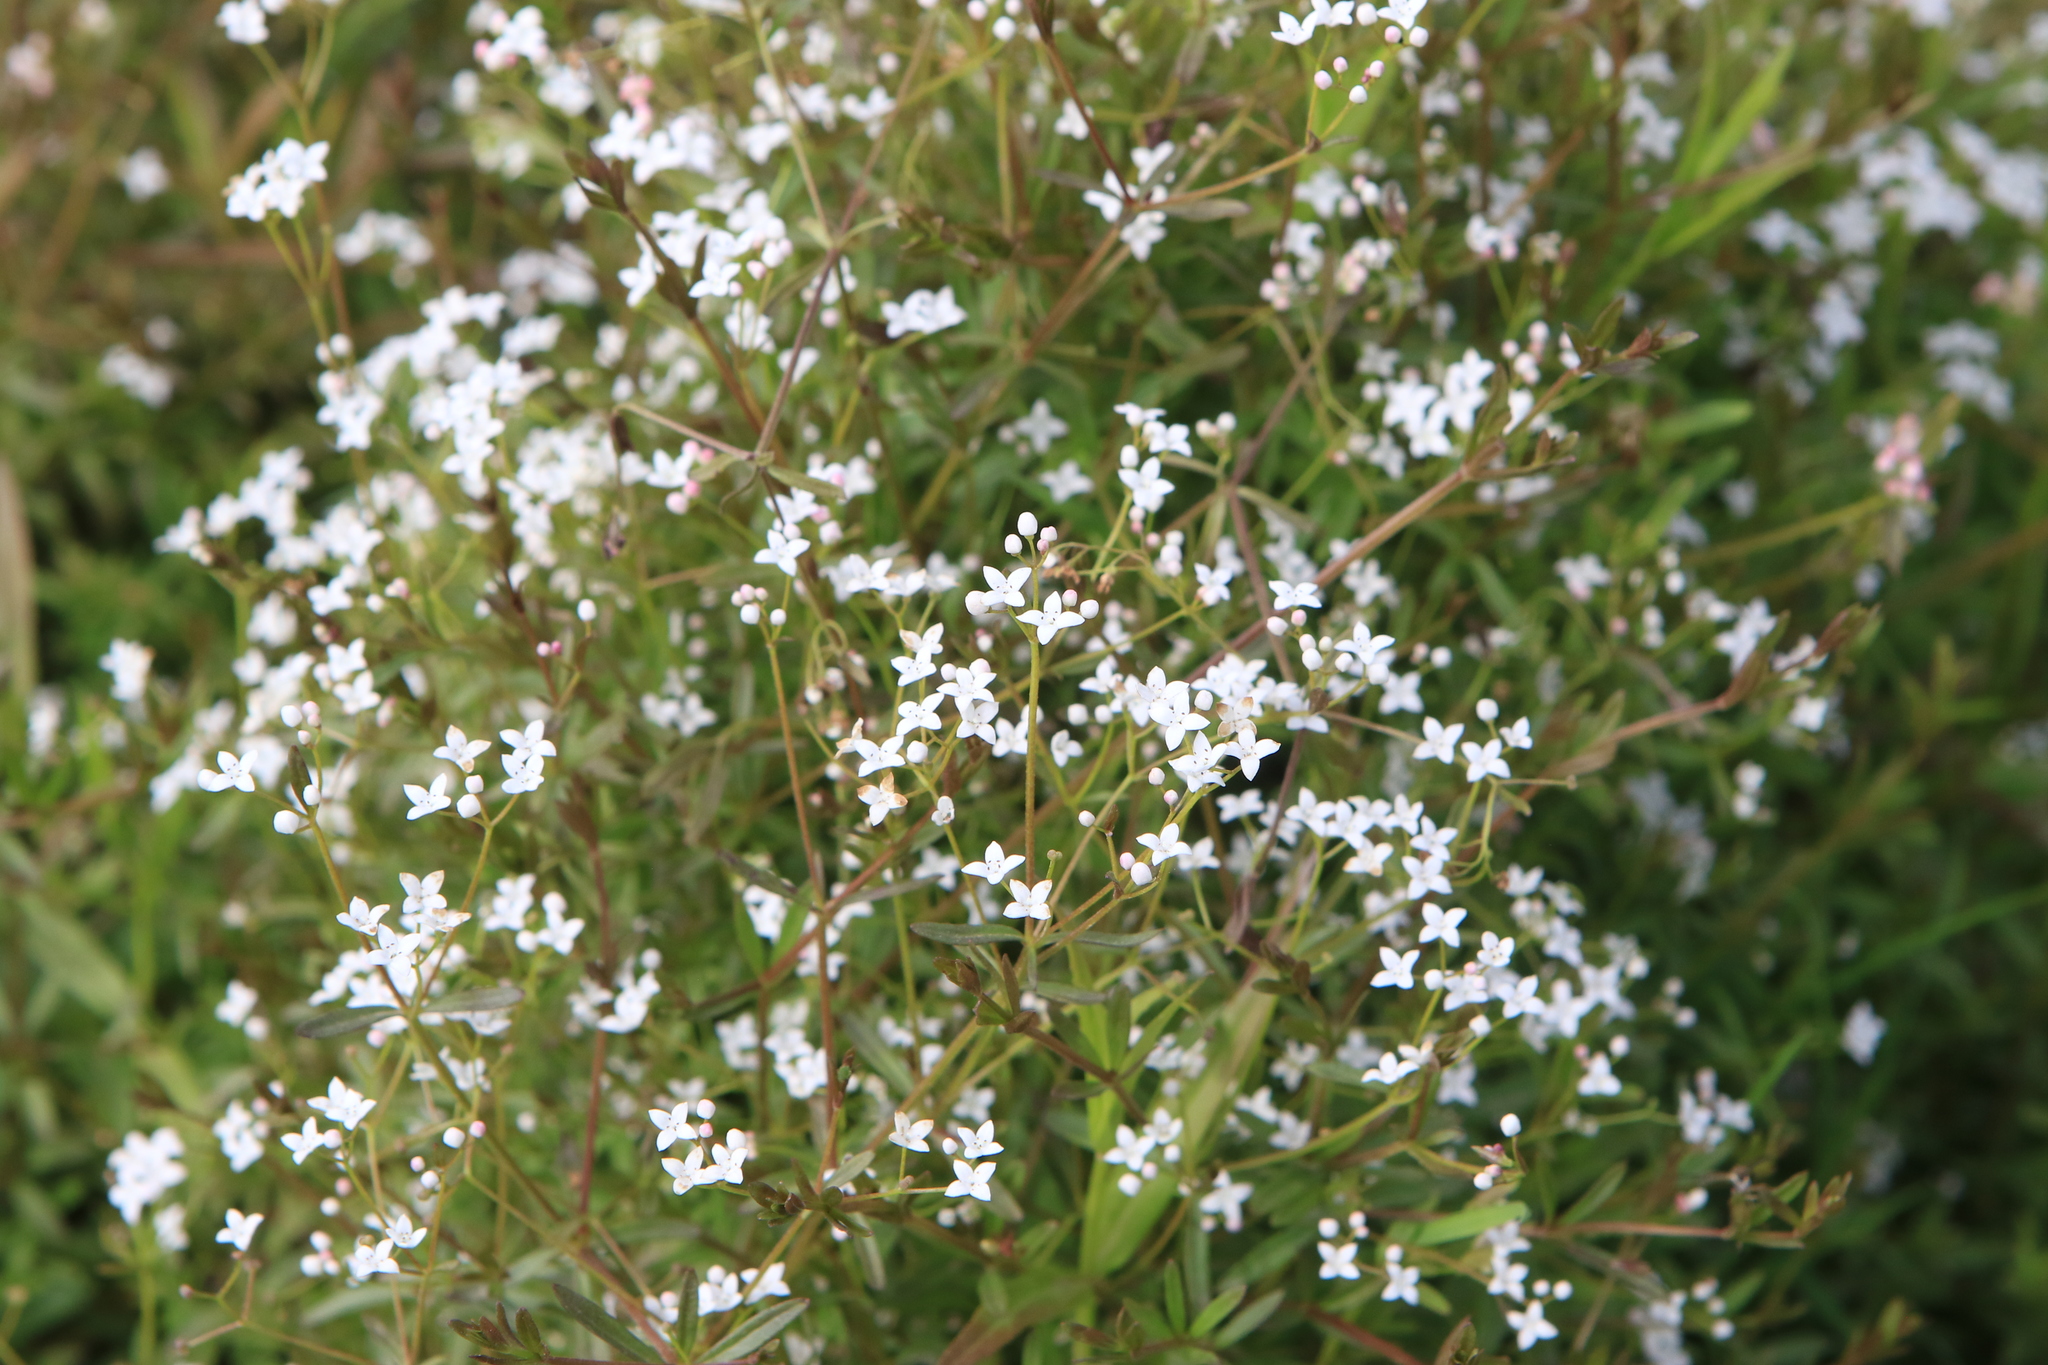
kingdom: Plantae
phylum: Tracheophyta
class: Magnoliopsida
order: Gentianales
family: Rubiaceae
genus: Galium
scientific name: Galium palustre
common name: Common marsh-bedstraw
